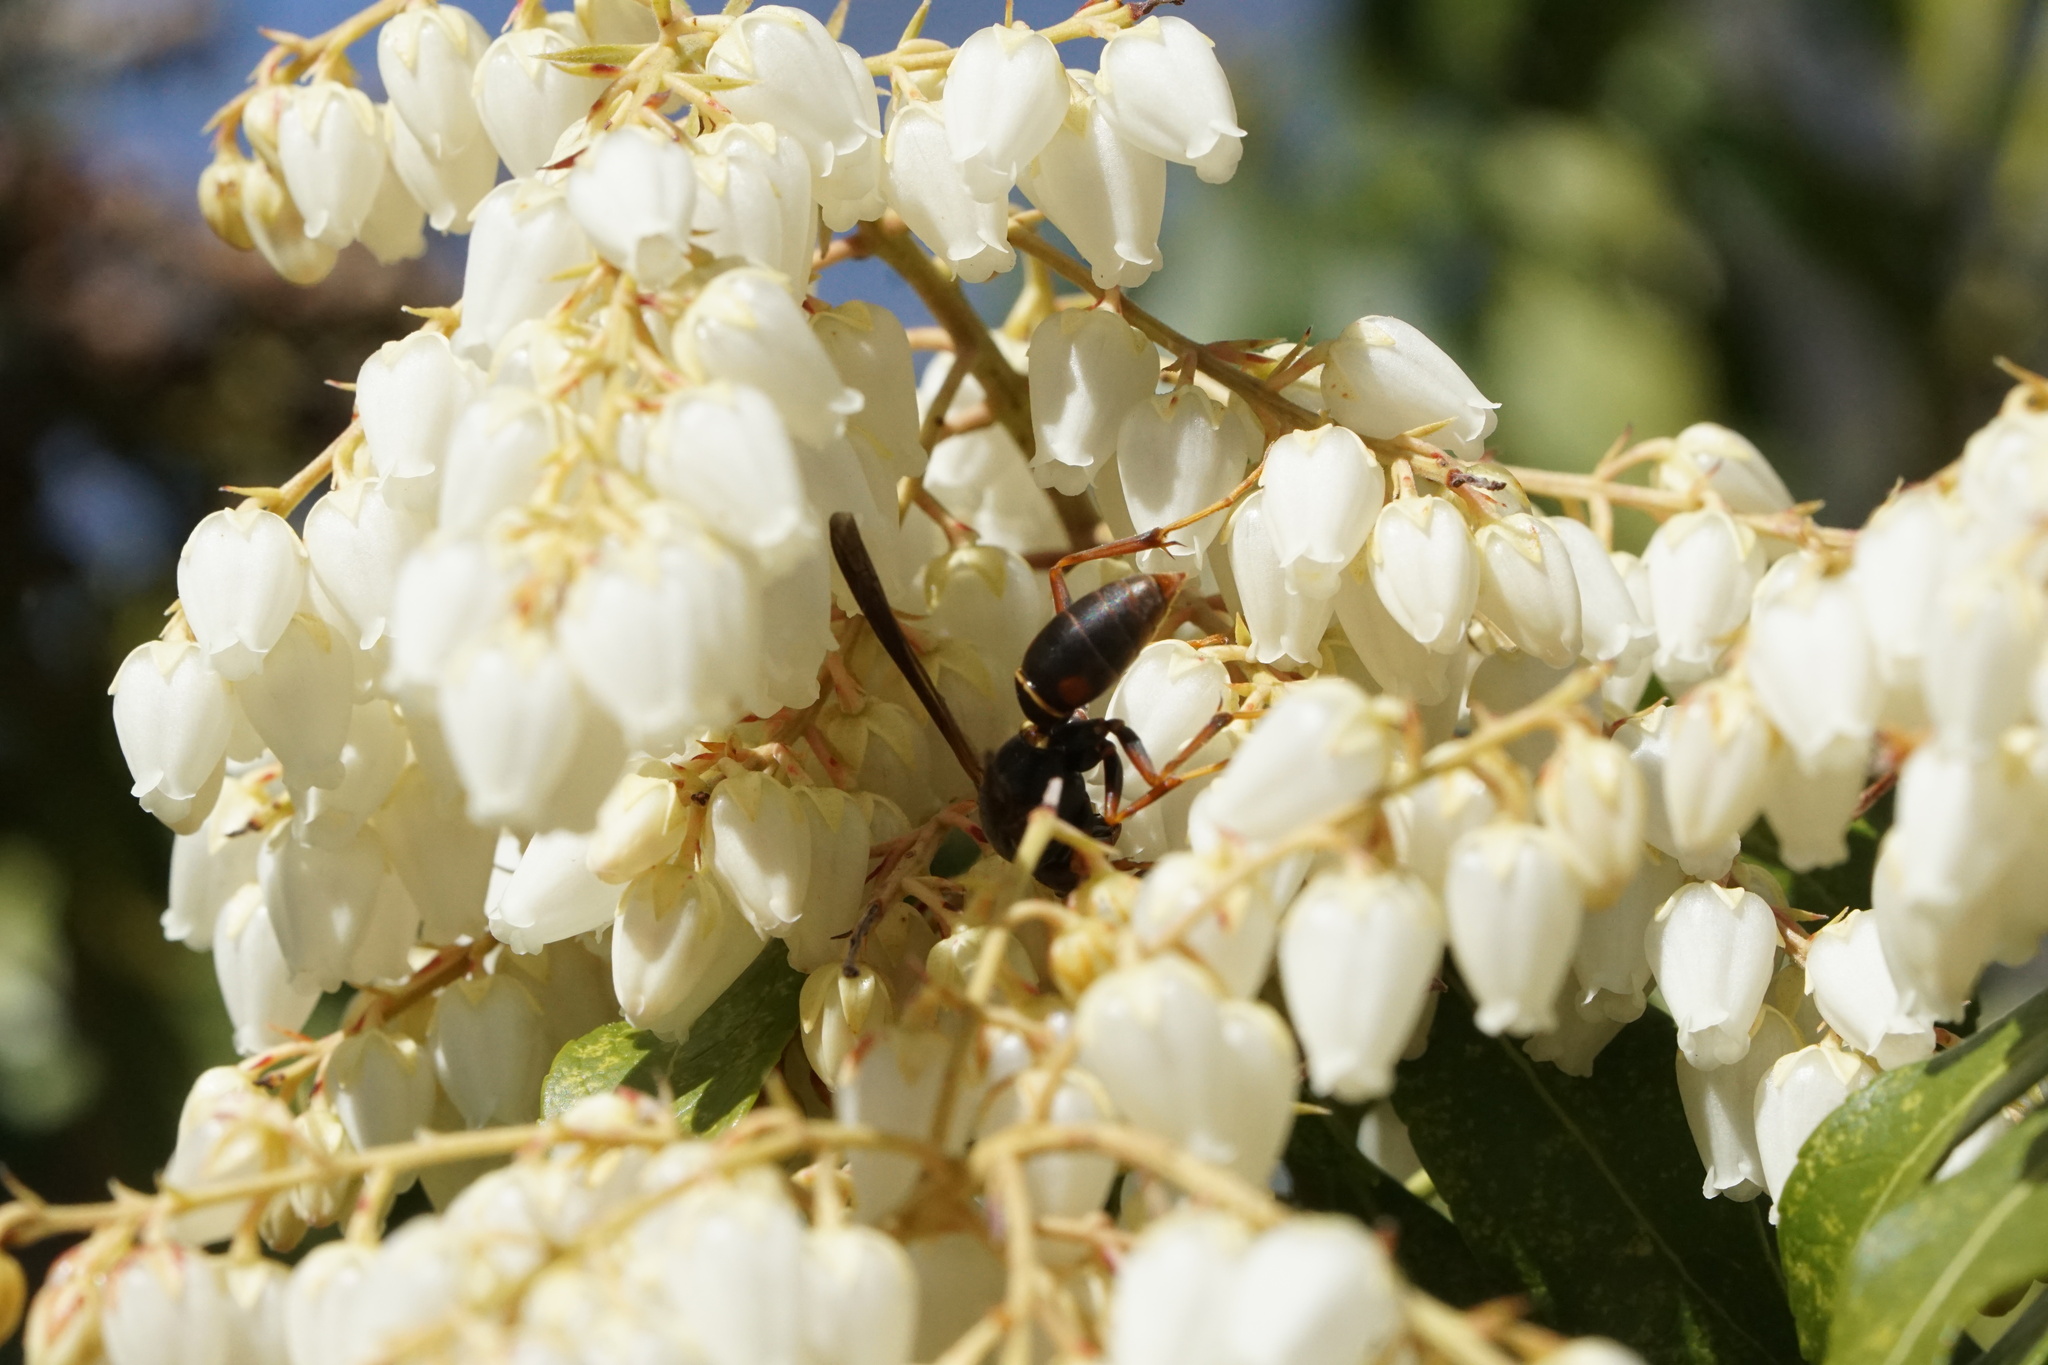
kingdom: Animalia
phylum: Arthropoda
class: Insecta
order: Hymenoptera
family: Eumenidae
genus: Polistes
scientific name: Polistes fuscatus
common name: Dark paper wasp
